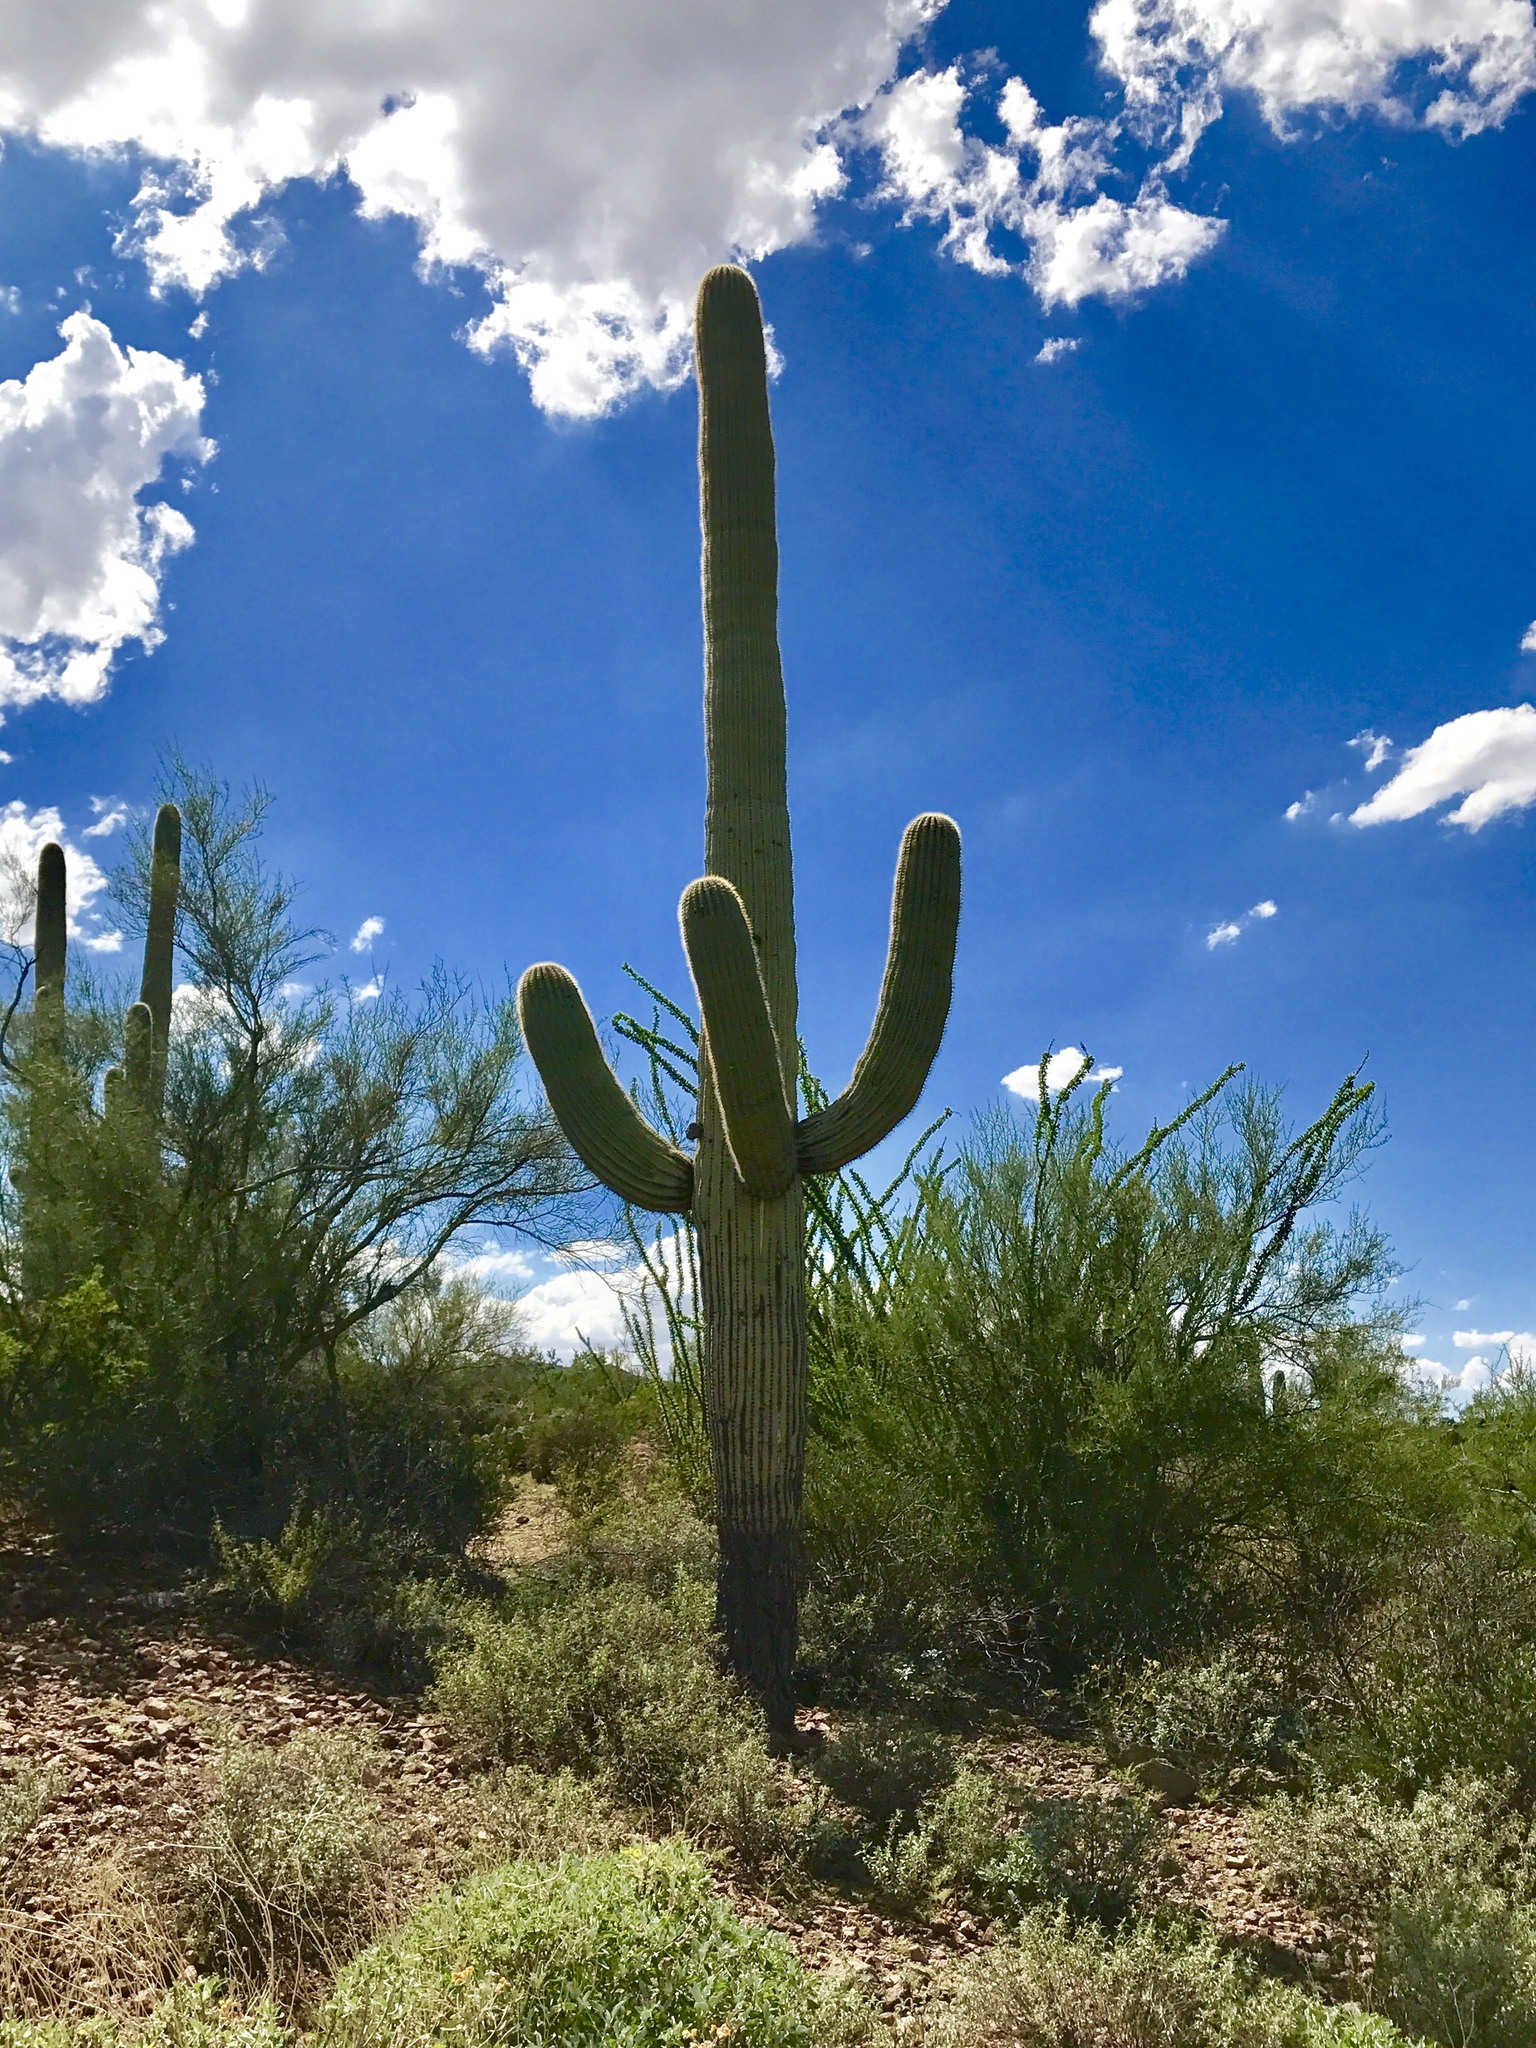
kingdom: Plantae
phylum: Tracheophyta
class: Magnoliopsida
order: Caryophyllales
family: Cactaceae
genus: Carnegiea
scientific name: Carnegiea gigantea
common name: Saguaro
